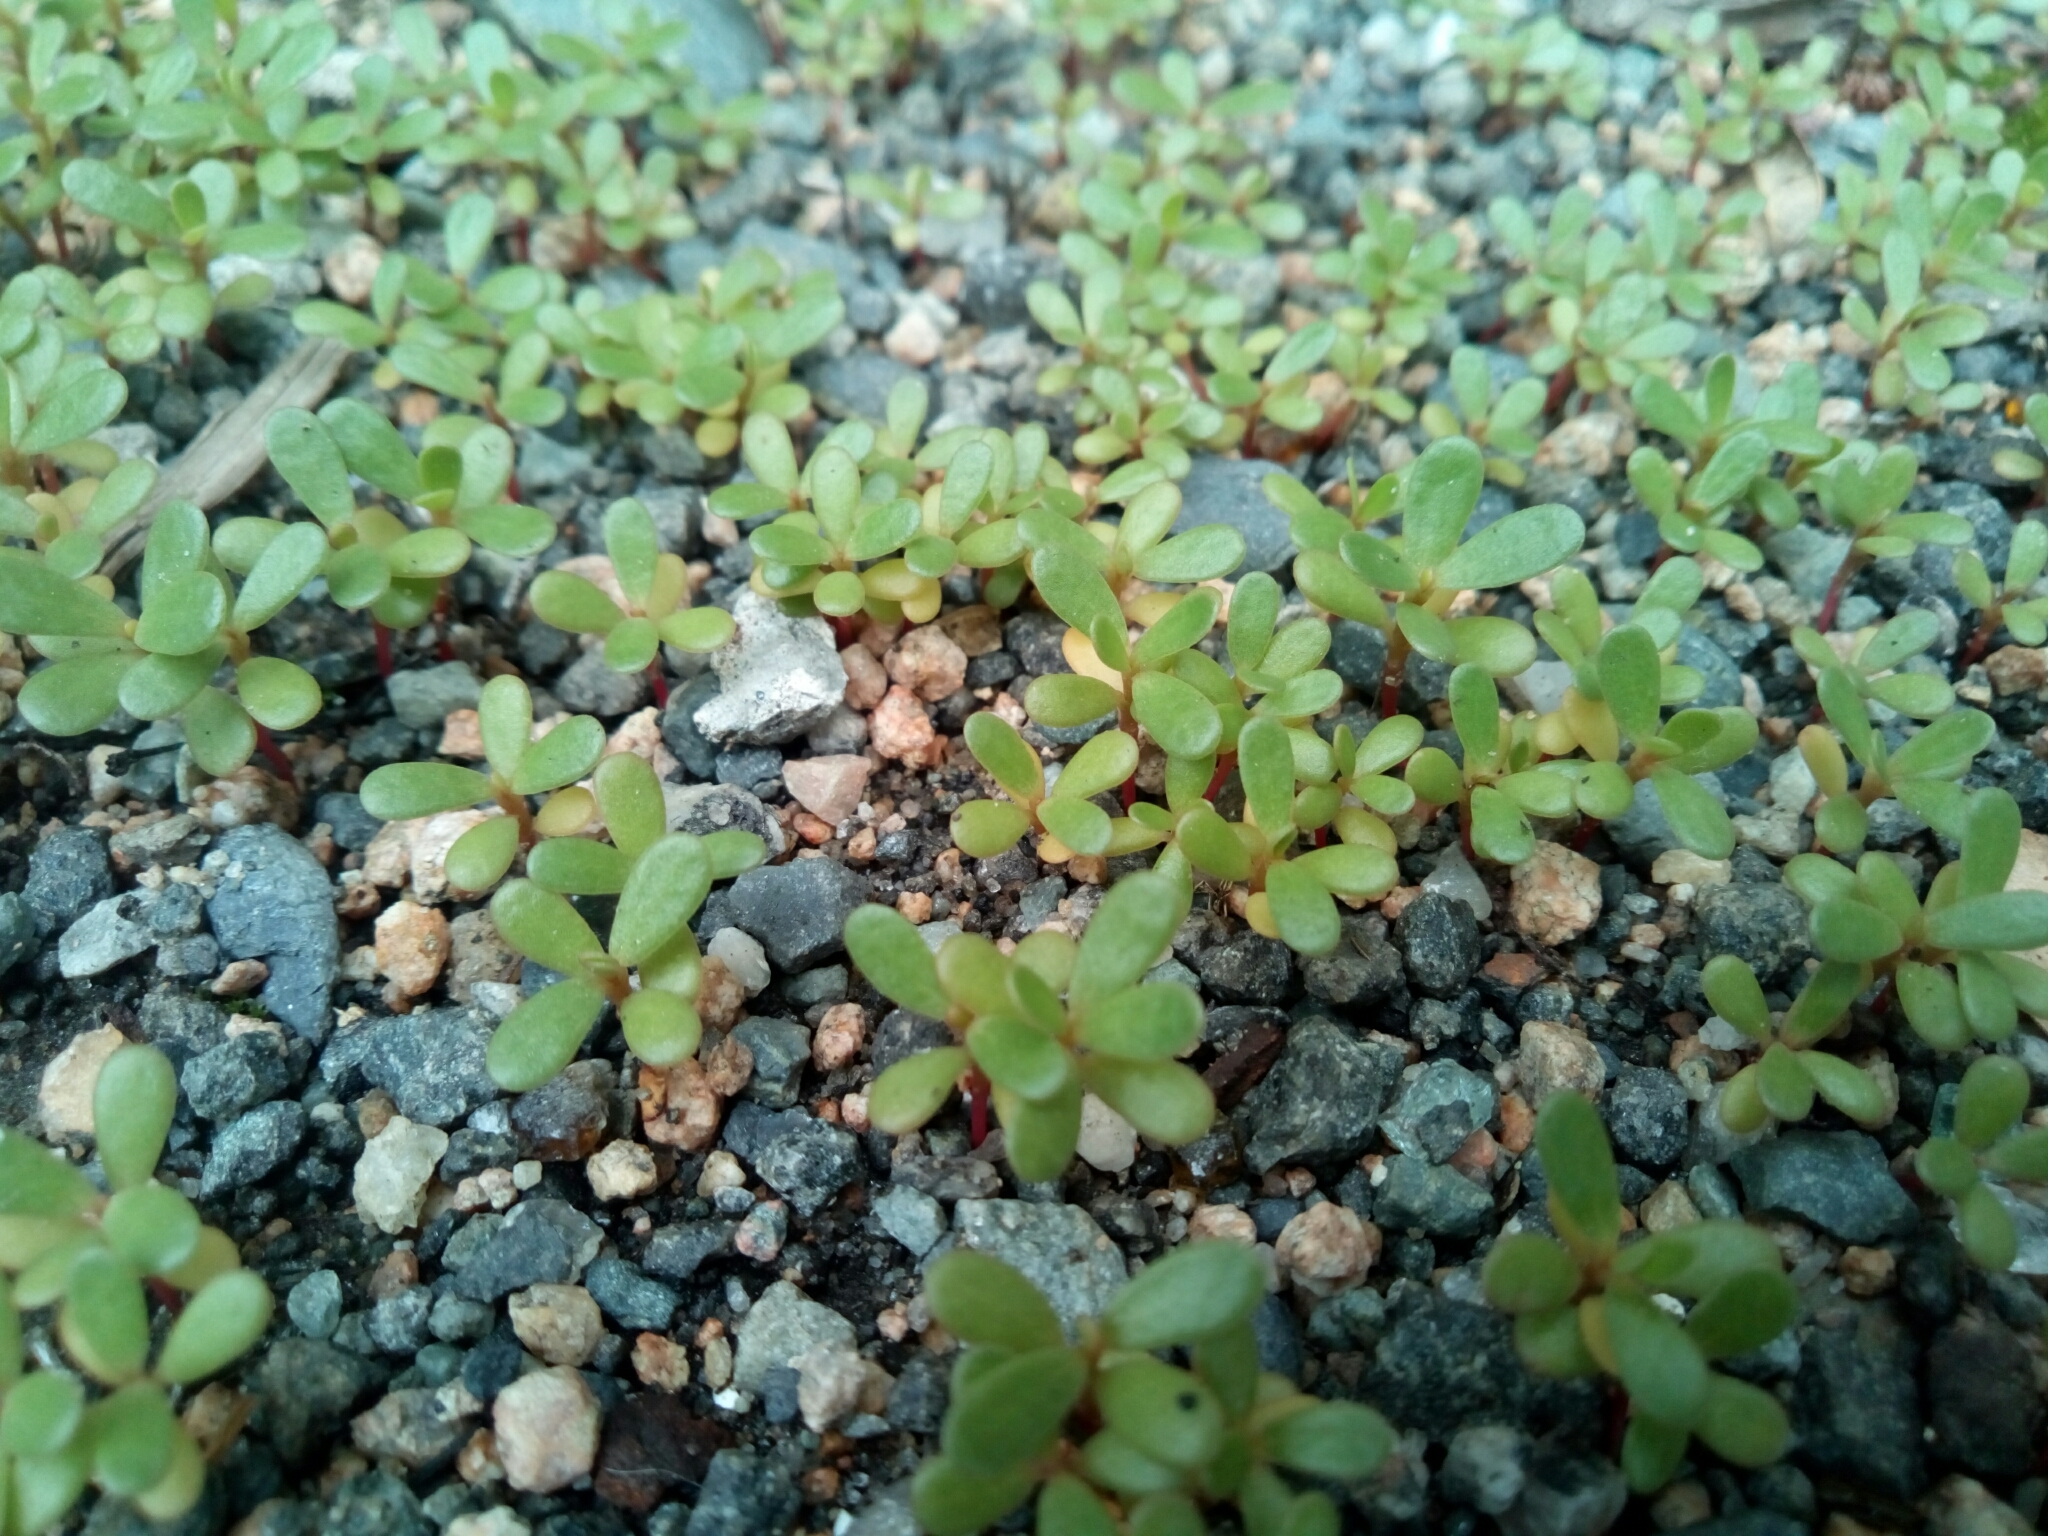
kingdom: Plantae
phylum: Tracheophyta
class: Magnoliopsida
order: Caryophyllales
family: Portulacaceae
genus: Portulaca
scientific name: Portulaca oleracea
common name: Common purslane
